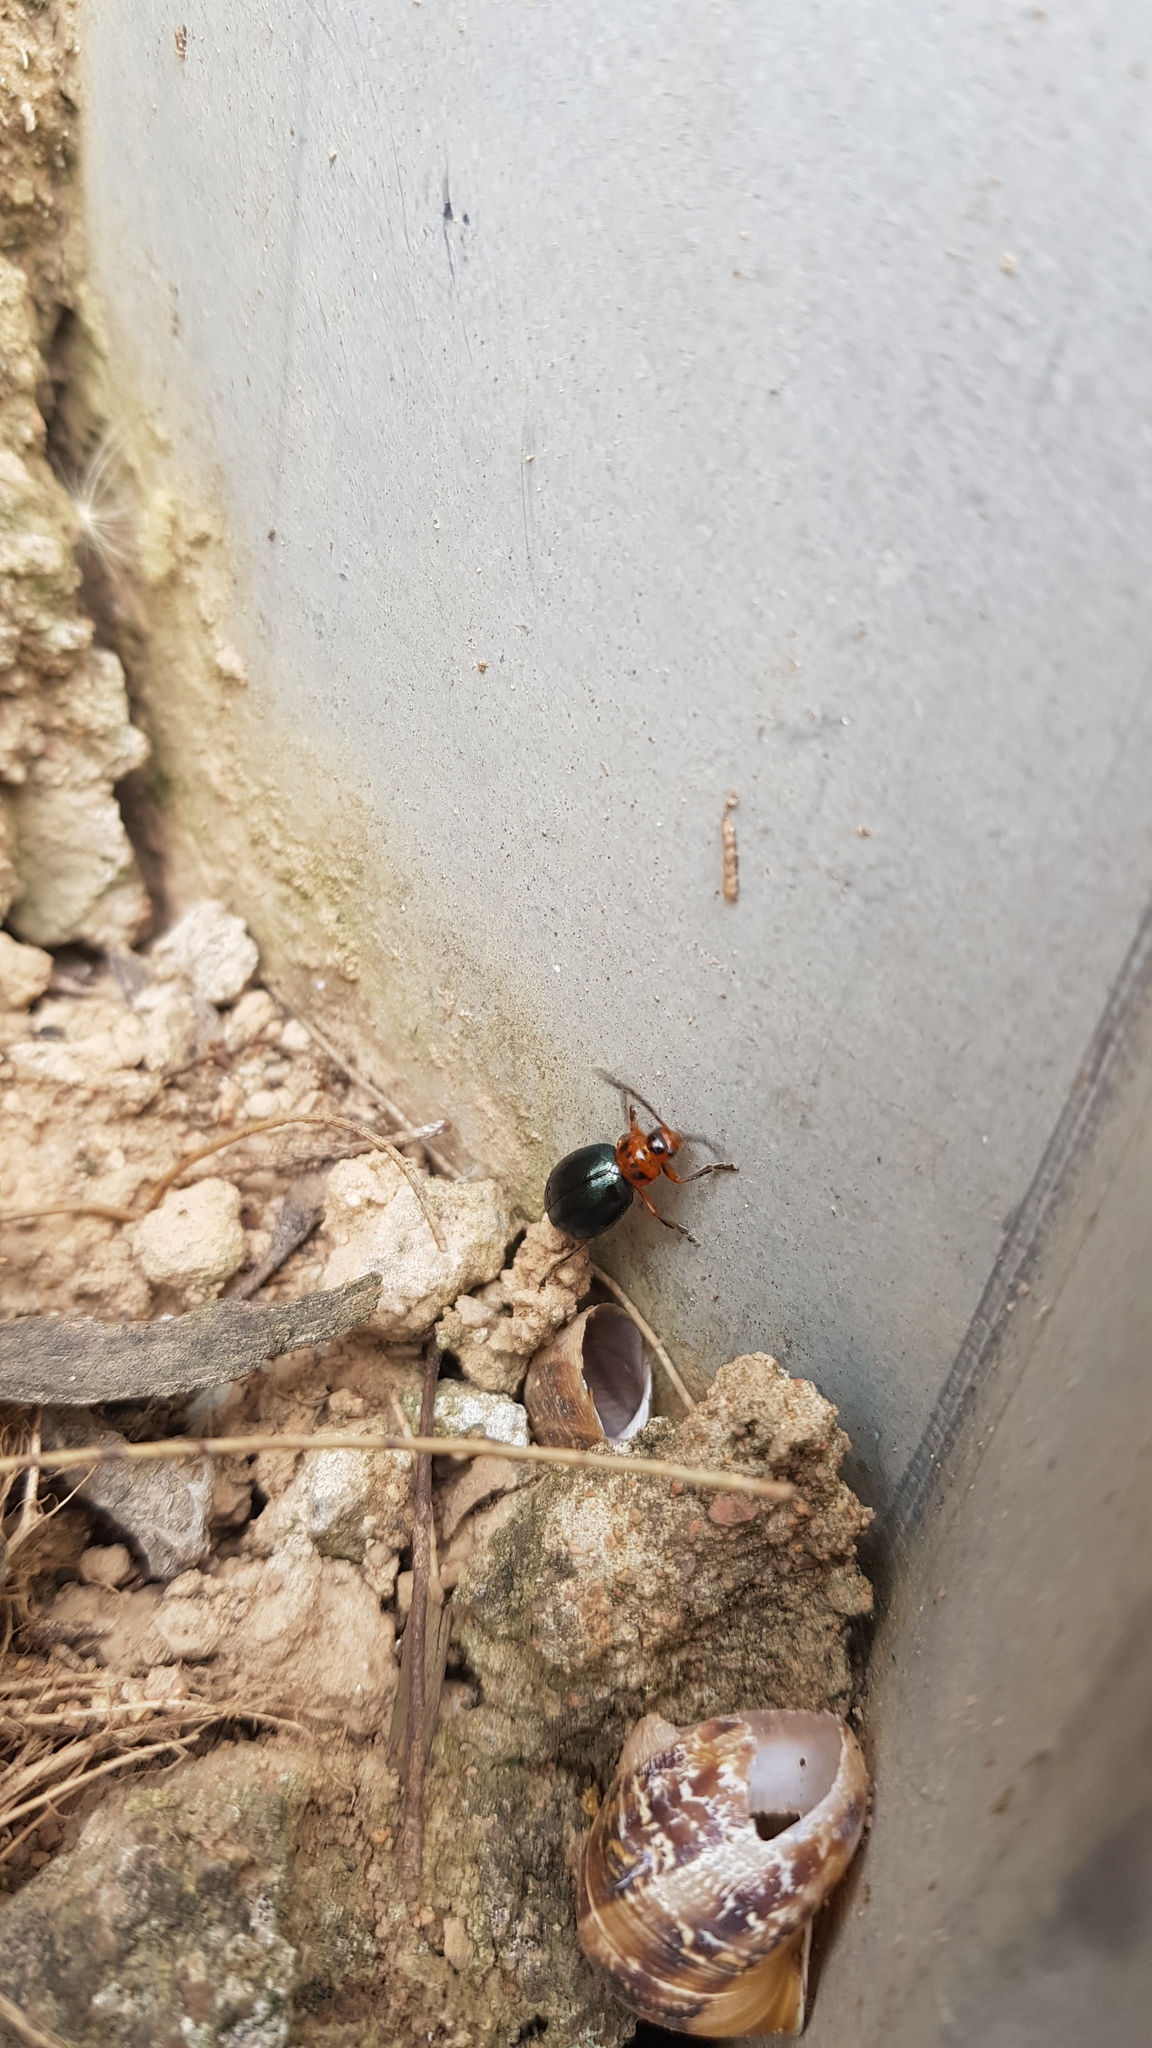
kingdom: Animalia
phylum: Arthropoda
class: Insecta
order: Coleoptera
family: Chrysomelidae
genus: Ellopidia
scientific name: Ellopidia
